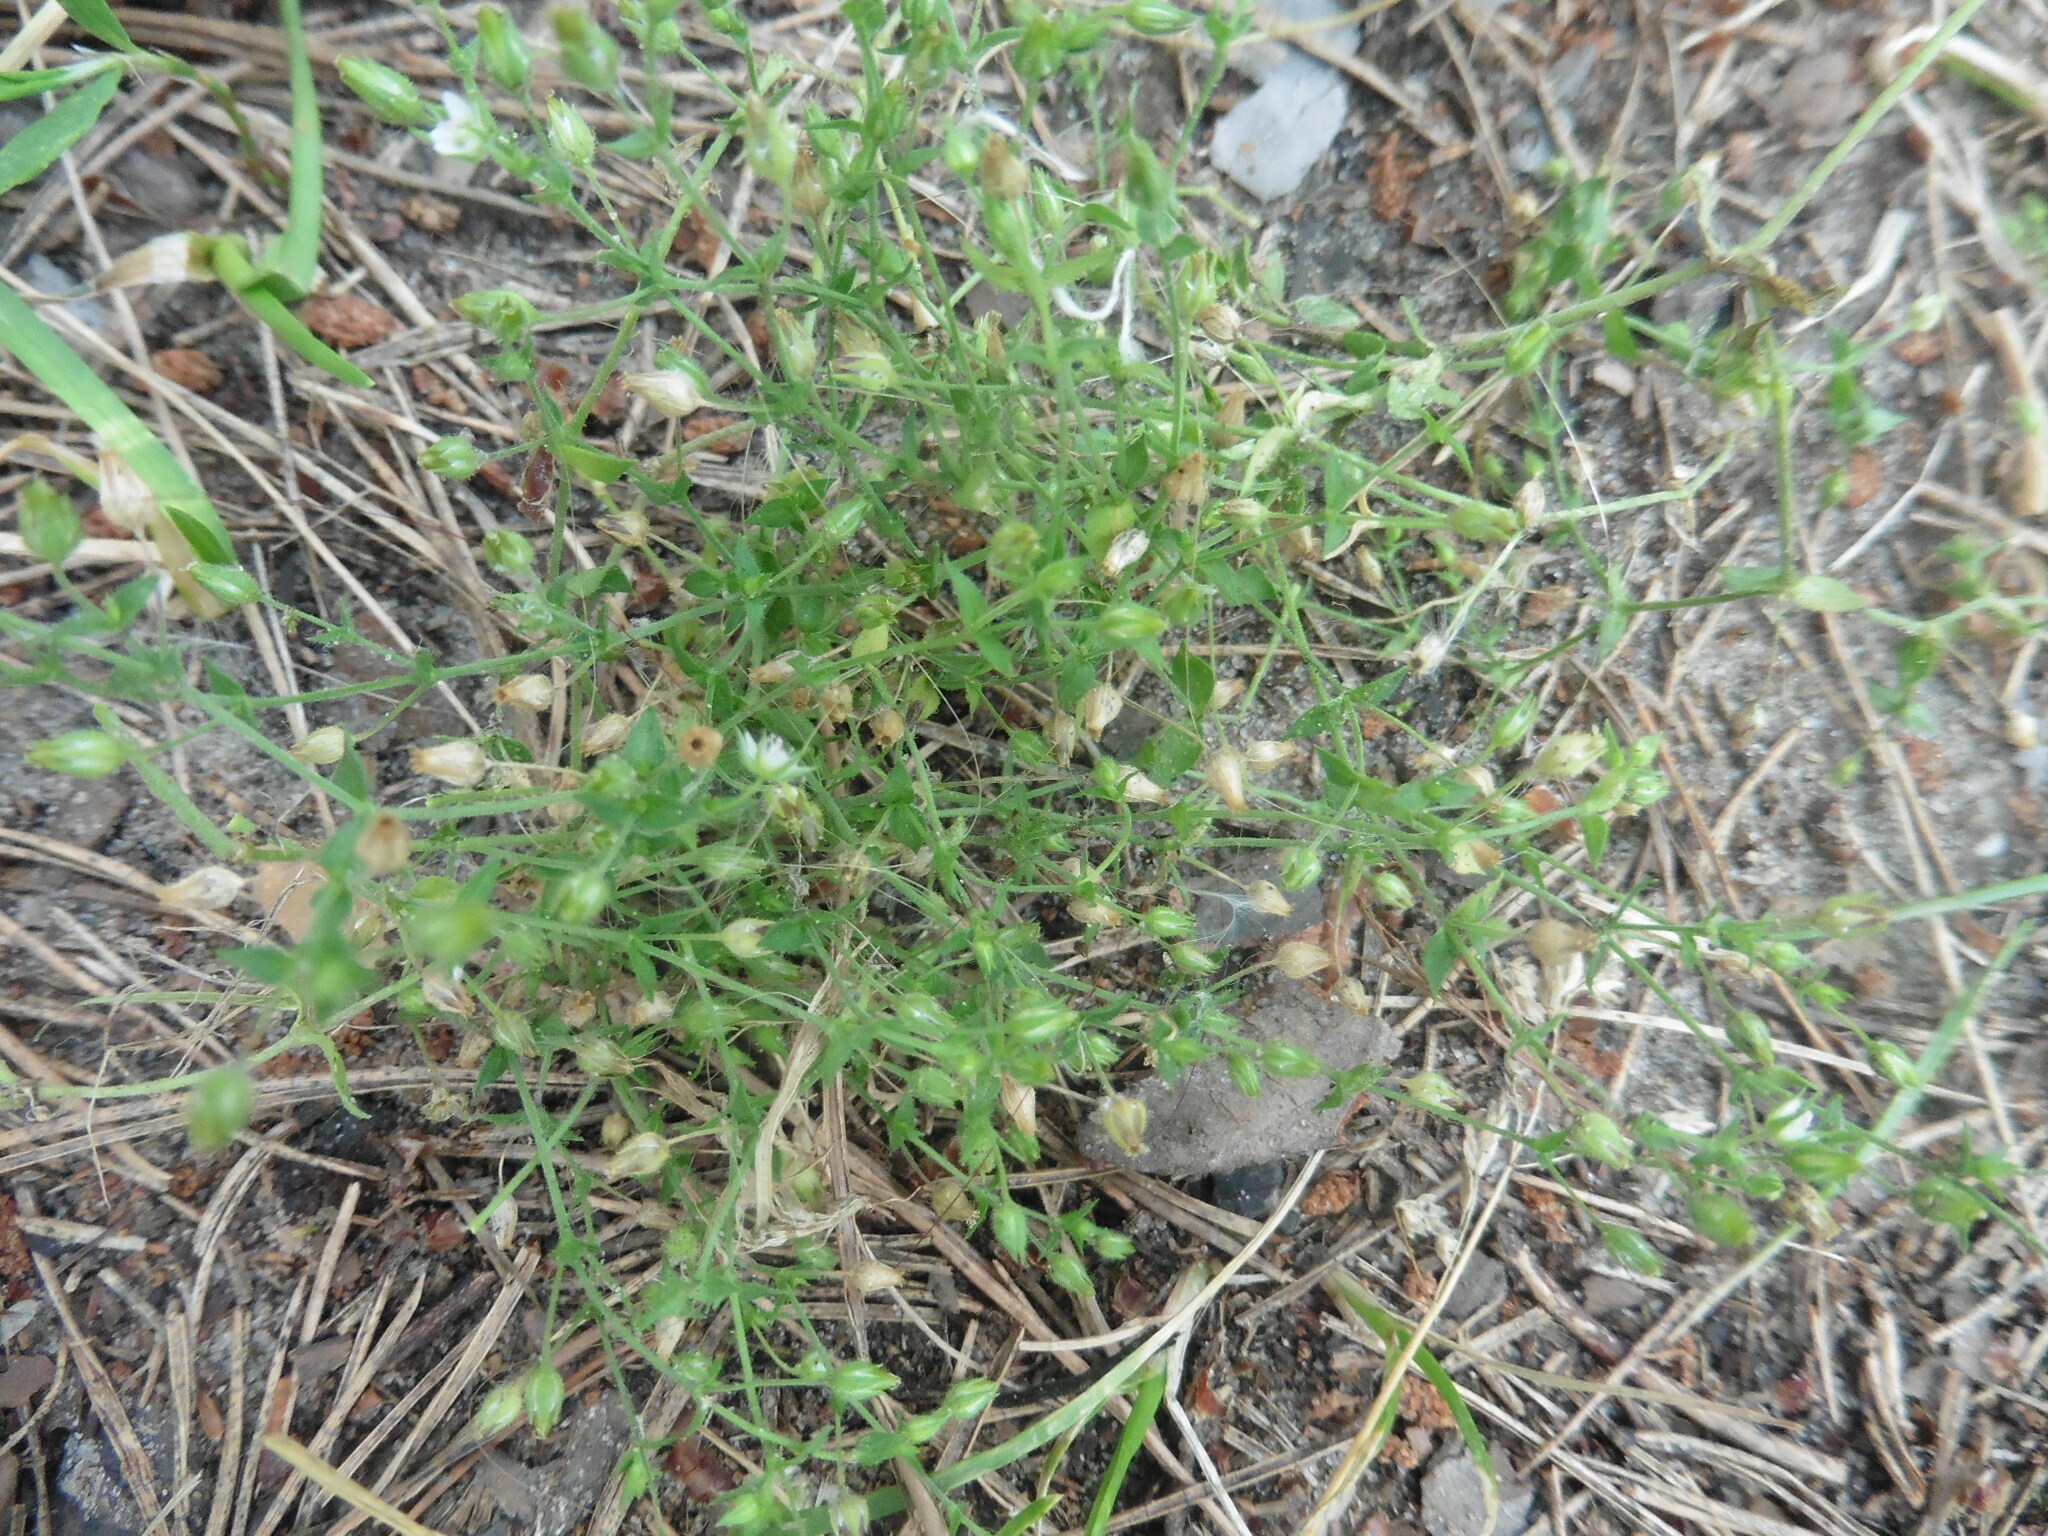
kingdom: Plantae
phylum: Tracheophyta
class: Magnoliopsida
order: Caryophyllales
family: Caryophyllaceae
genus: Spergularia
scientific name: Spergularia rubra
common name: Red sand-spurrey
